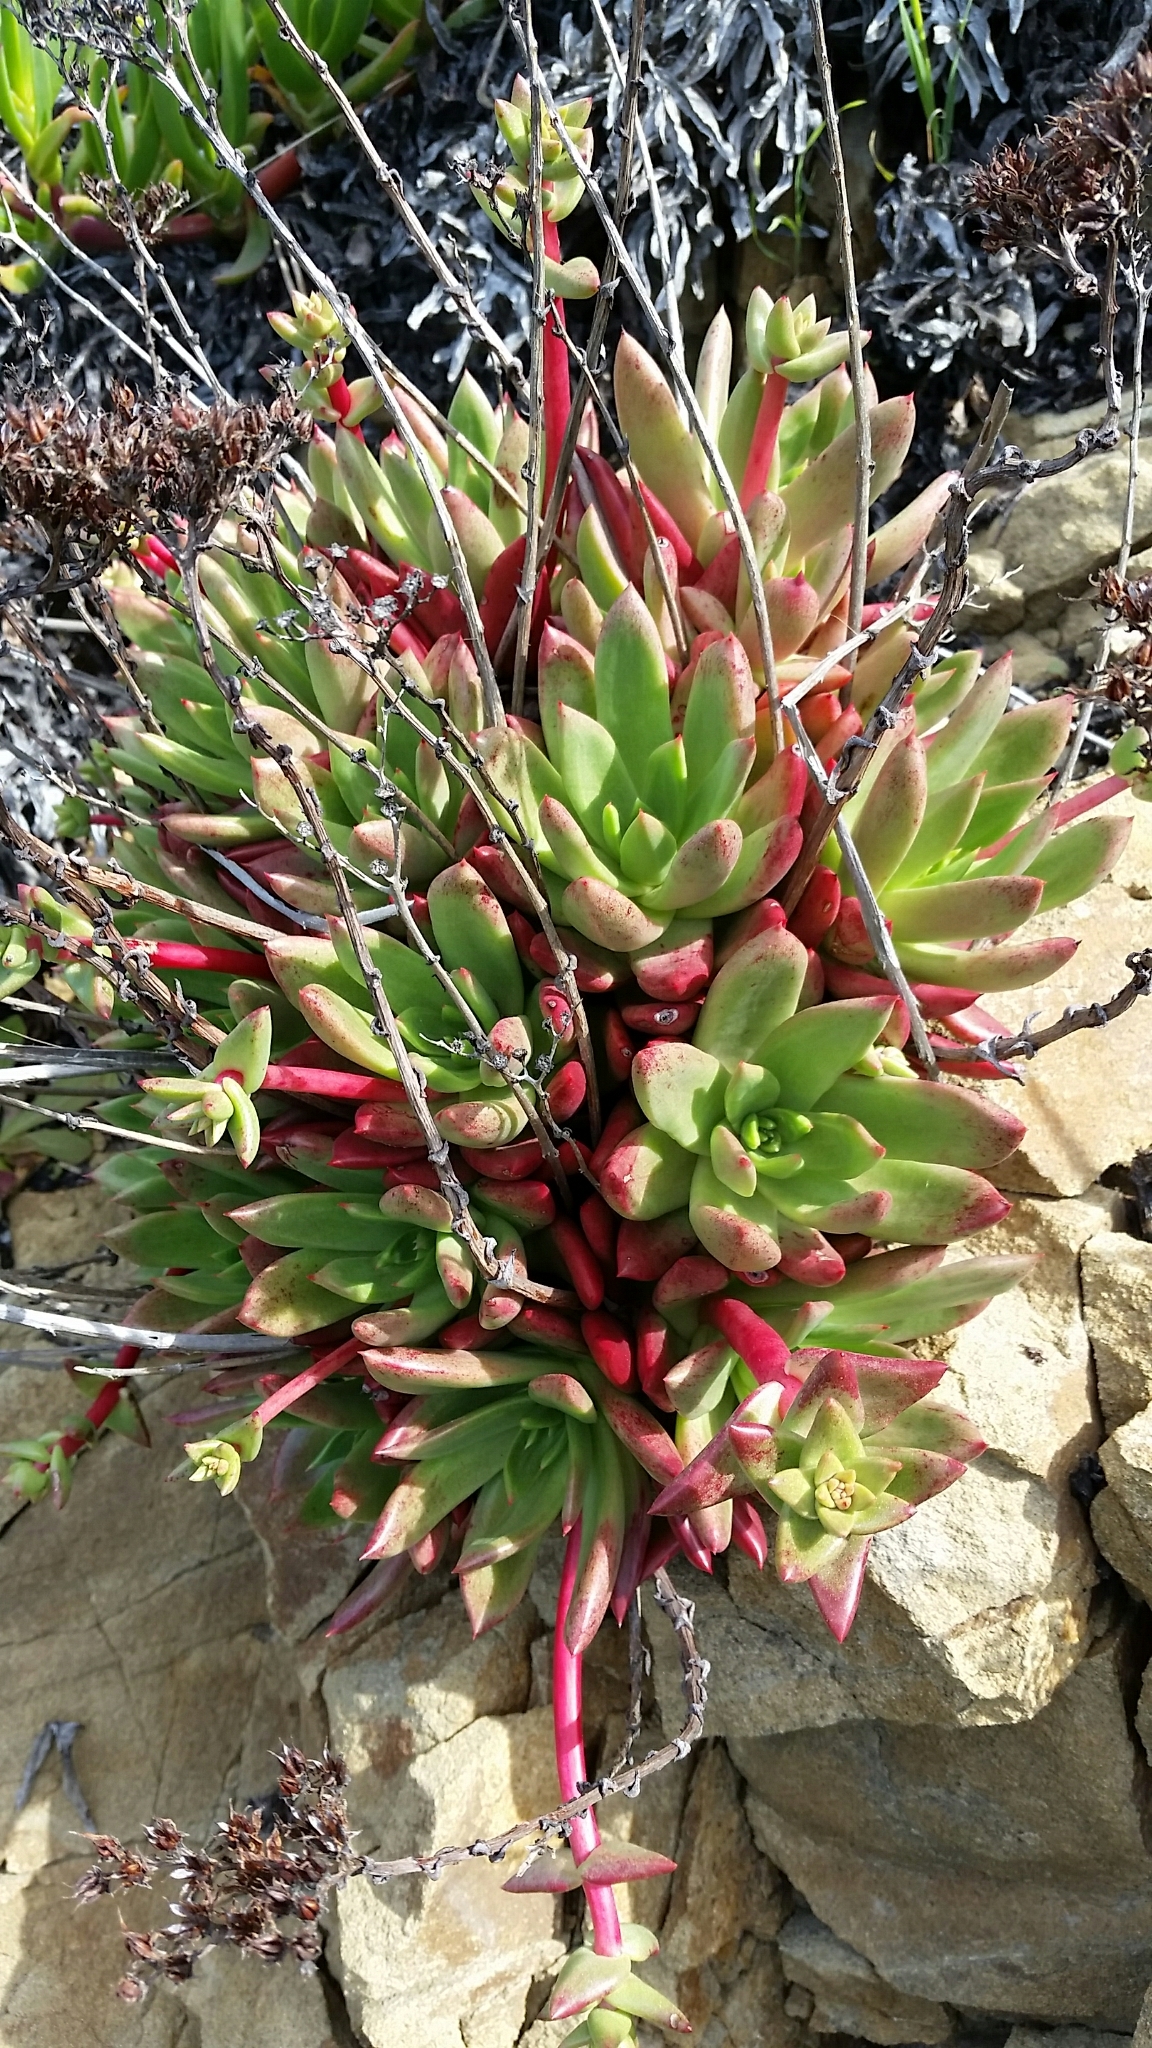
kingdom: Plantae
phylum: Tracheophyta
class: Magnoliopsida
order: Saxifragales
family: Crassulaceae
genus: Dudleya
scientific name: Dudleya farinosa
